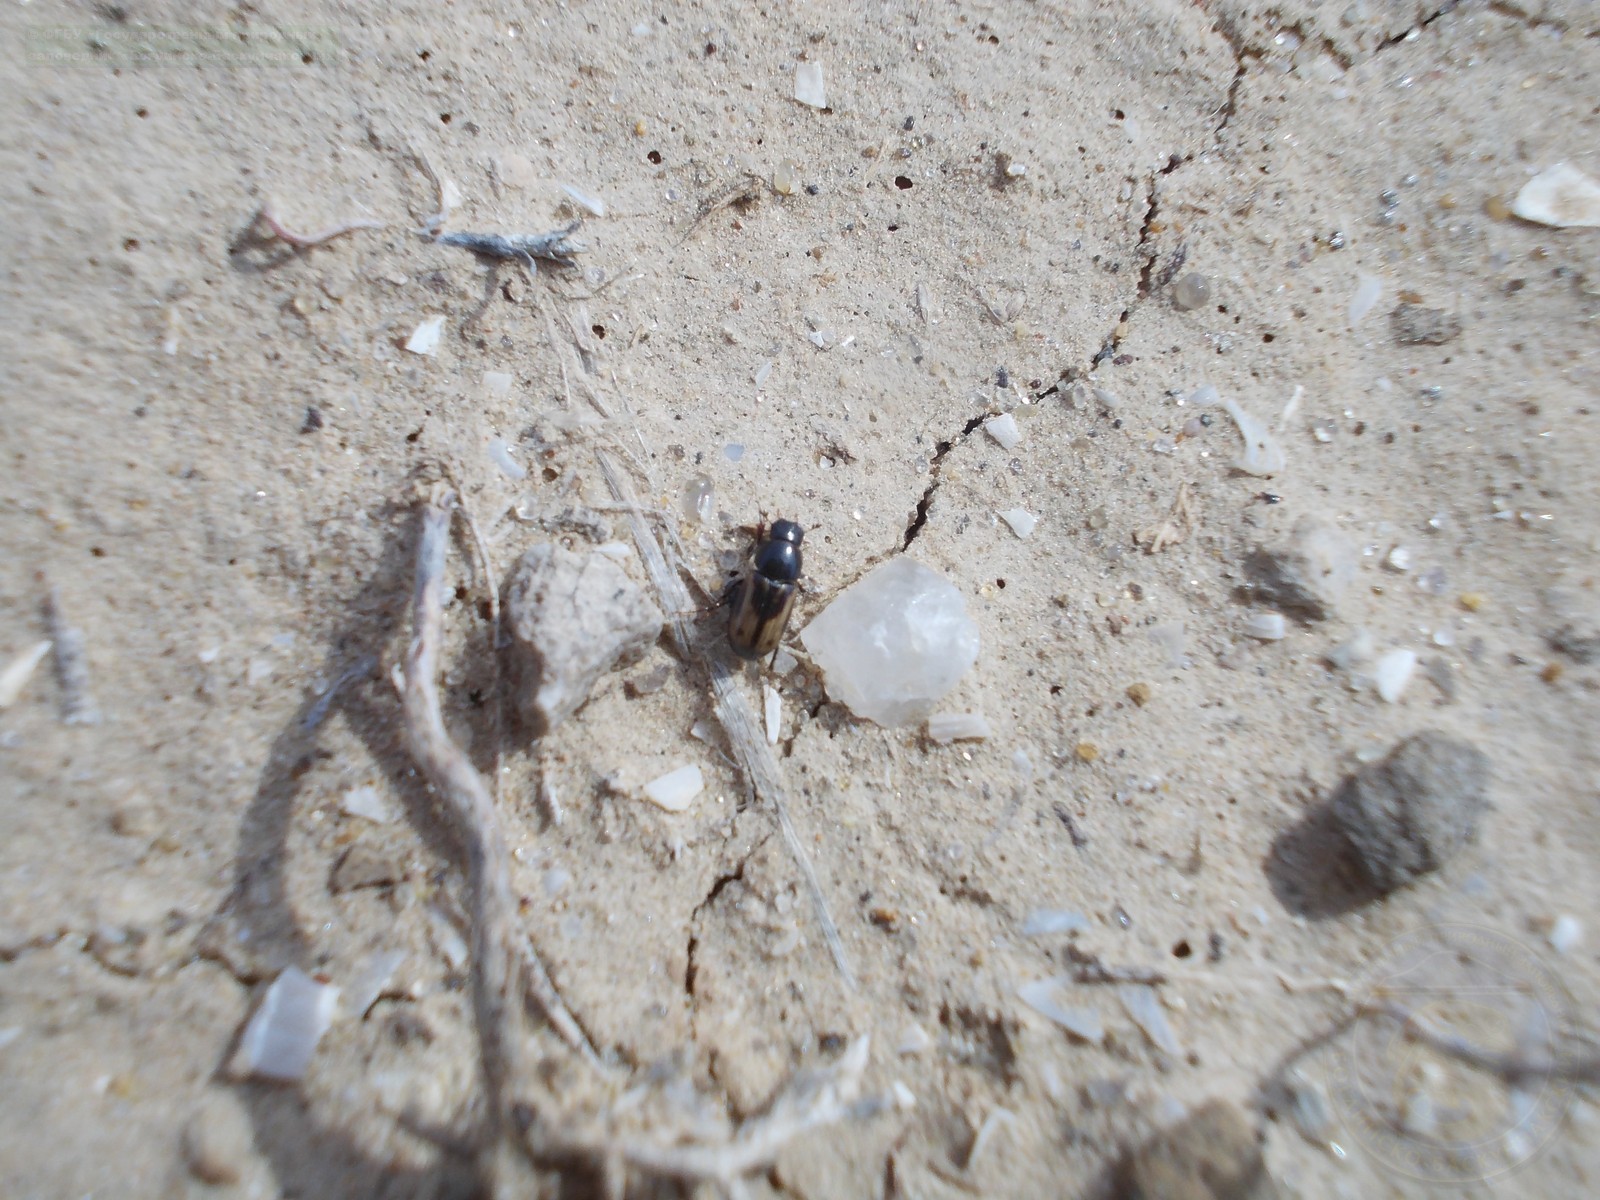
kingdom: Animalia
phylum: Arthropoda
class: Insecta
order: Coleoptera
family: Scarabaeidae
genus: Chilothorax
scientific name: Chilothorax planus
